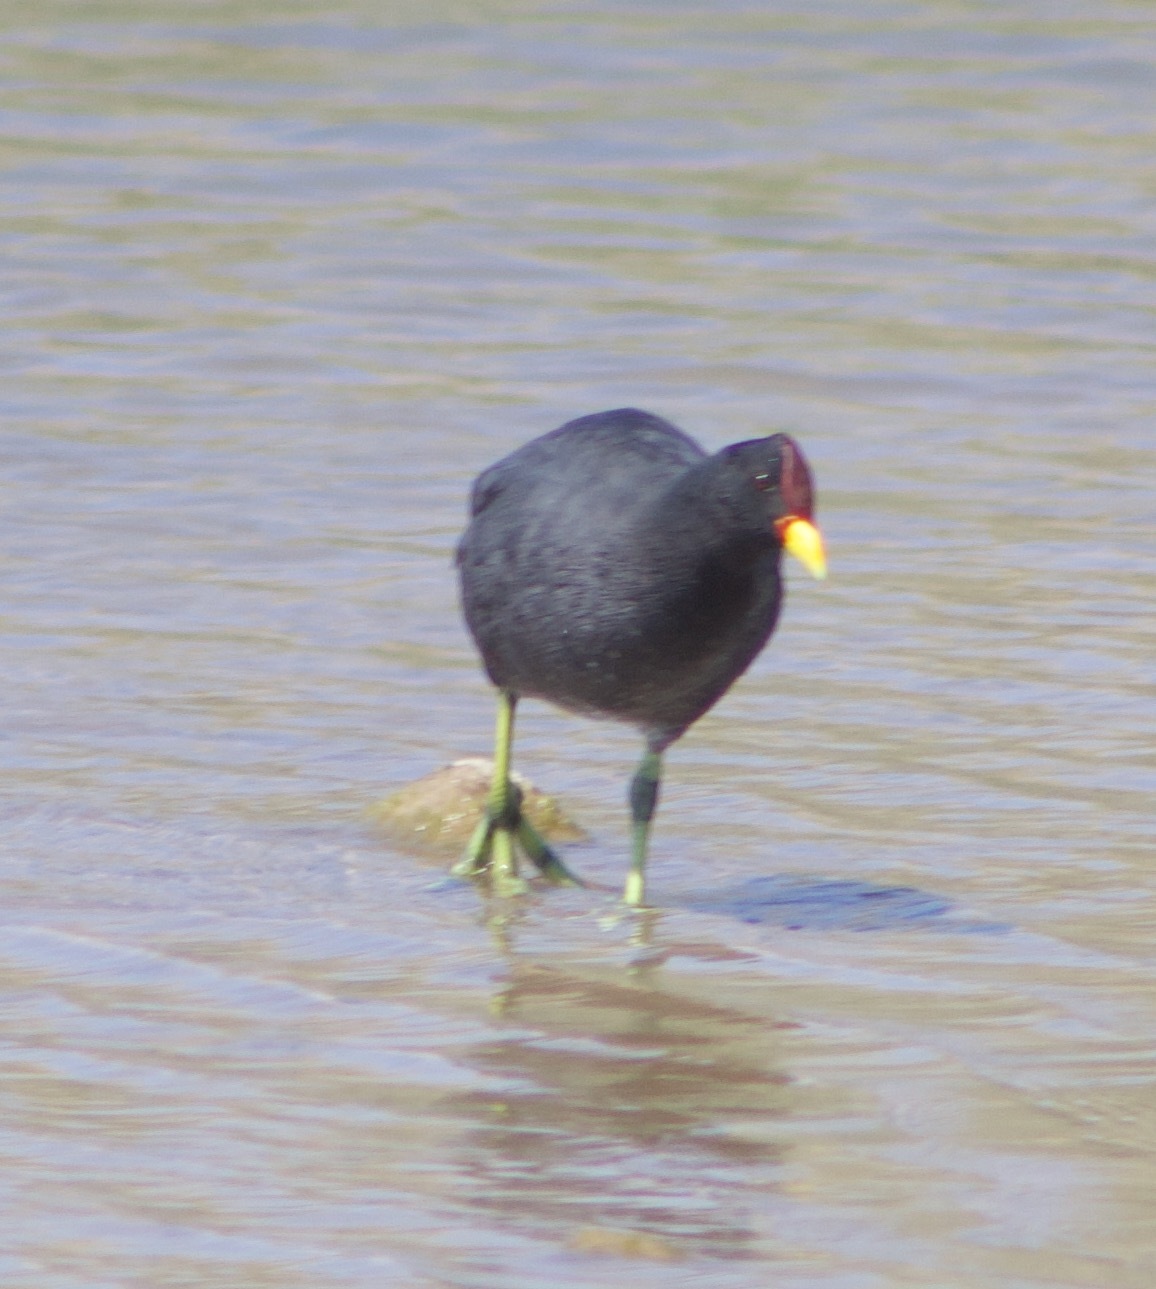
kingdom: Animalia
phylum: Chordata
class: Aves
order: Gruiformes
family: Rallidae
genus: Fulica
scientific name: Fulica rufifrons
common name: Red-fronted coot
